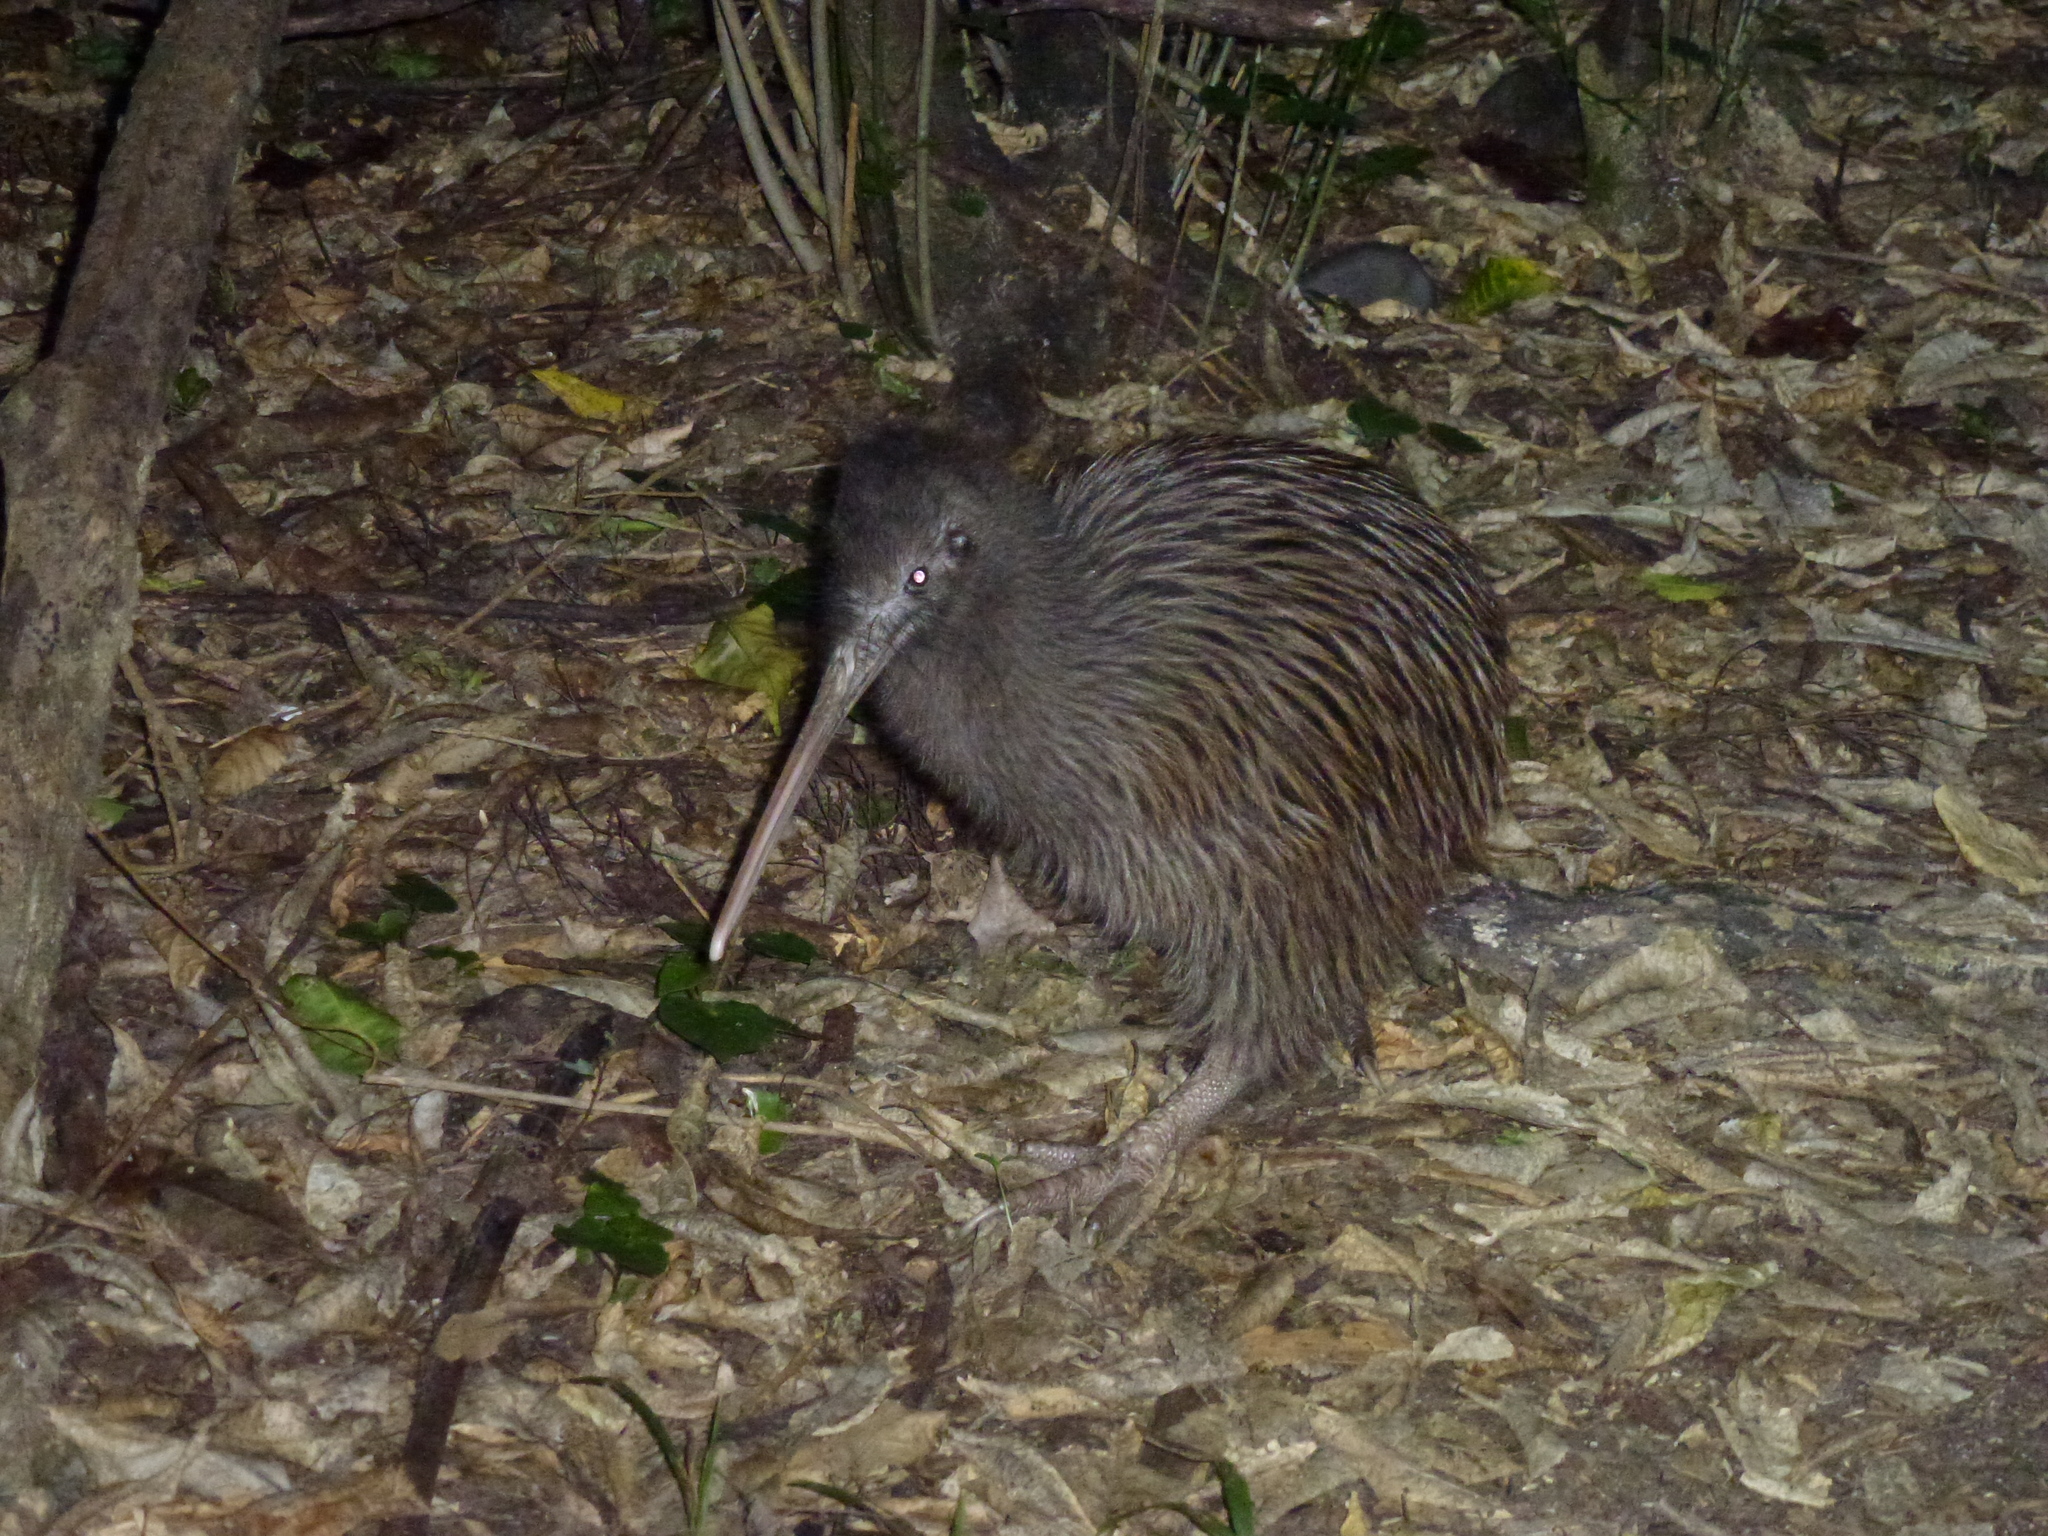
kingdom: Animalia
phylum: Chordata
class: Aves
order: Apterygiformes
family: Apterygidae
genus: Apteryx
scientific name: Apteryx rowi
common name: Okarito kiwi
